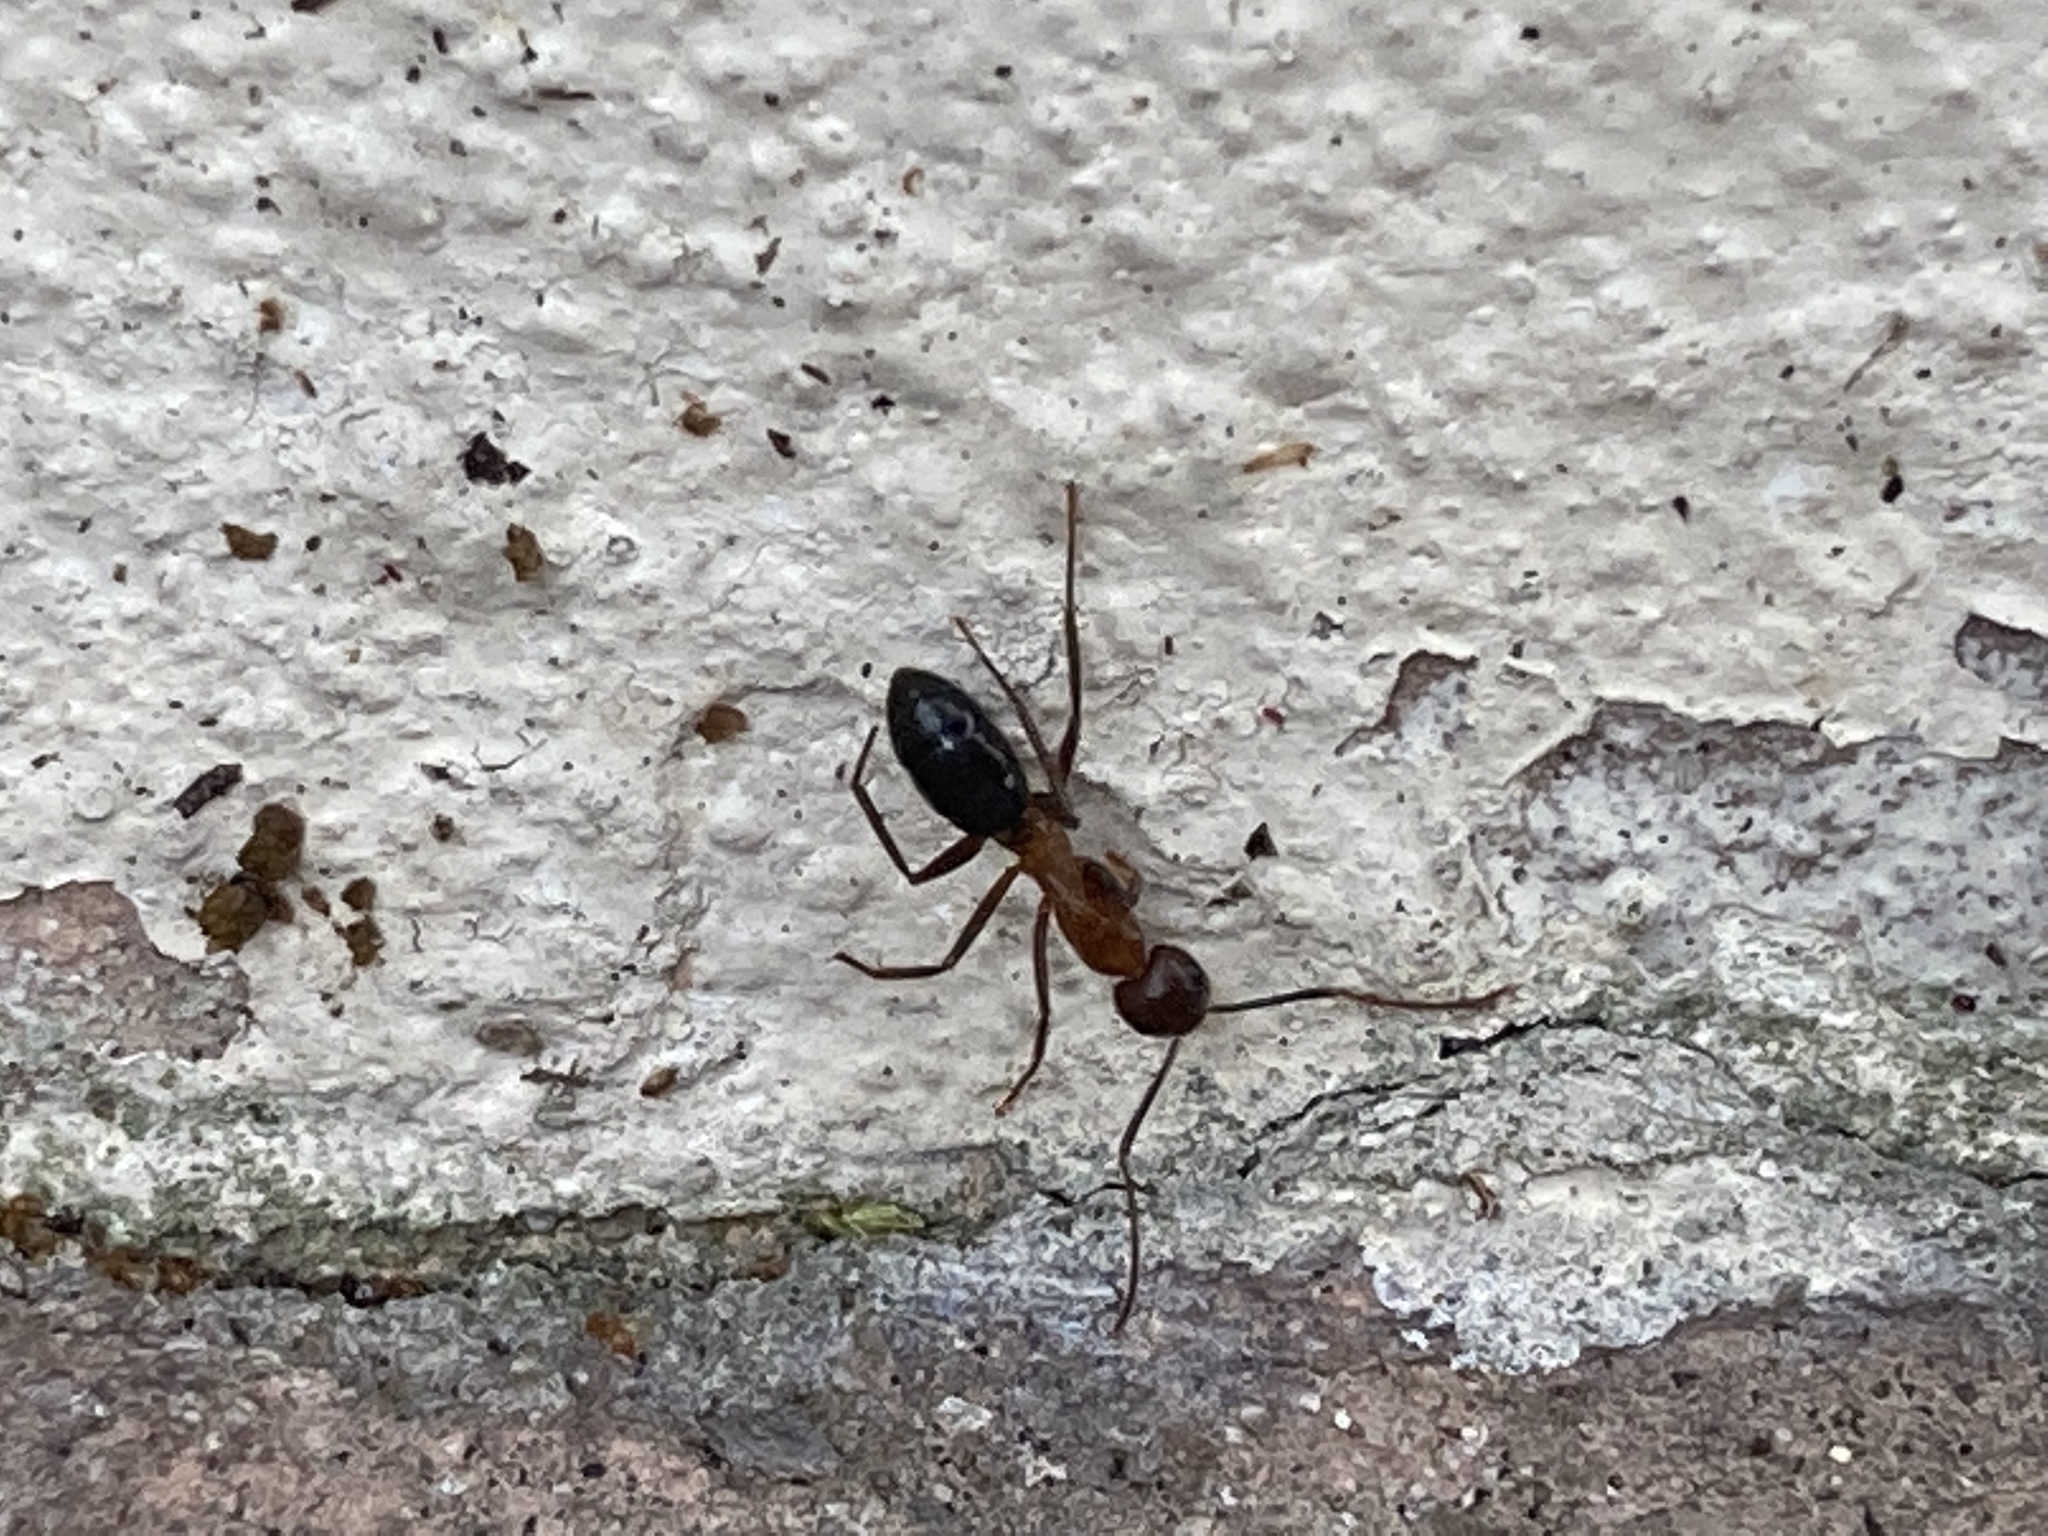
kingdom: Animalia
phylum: Arthropoda
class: Insecta
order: Hymenoptera
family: Formicidae
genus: Camponotus
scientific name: Camponotus floridanus
